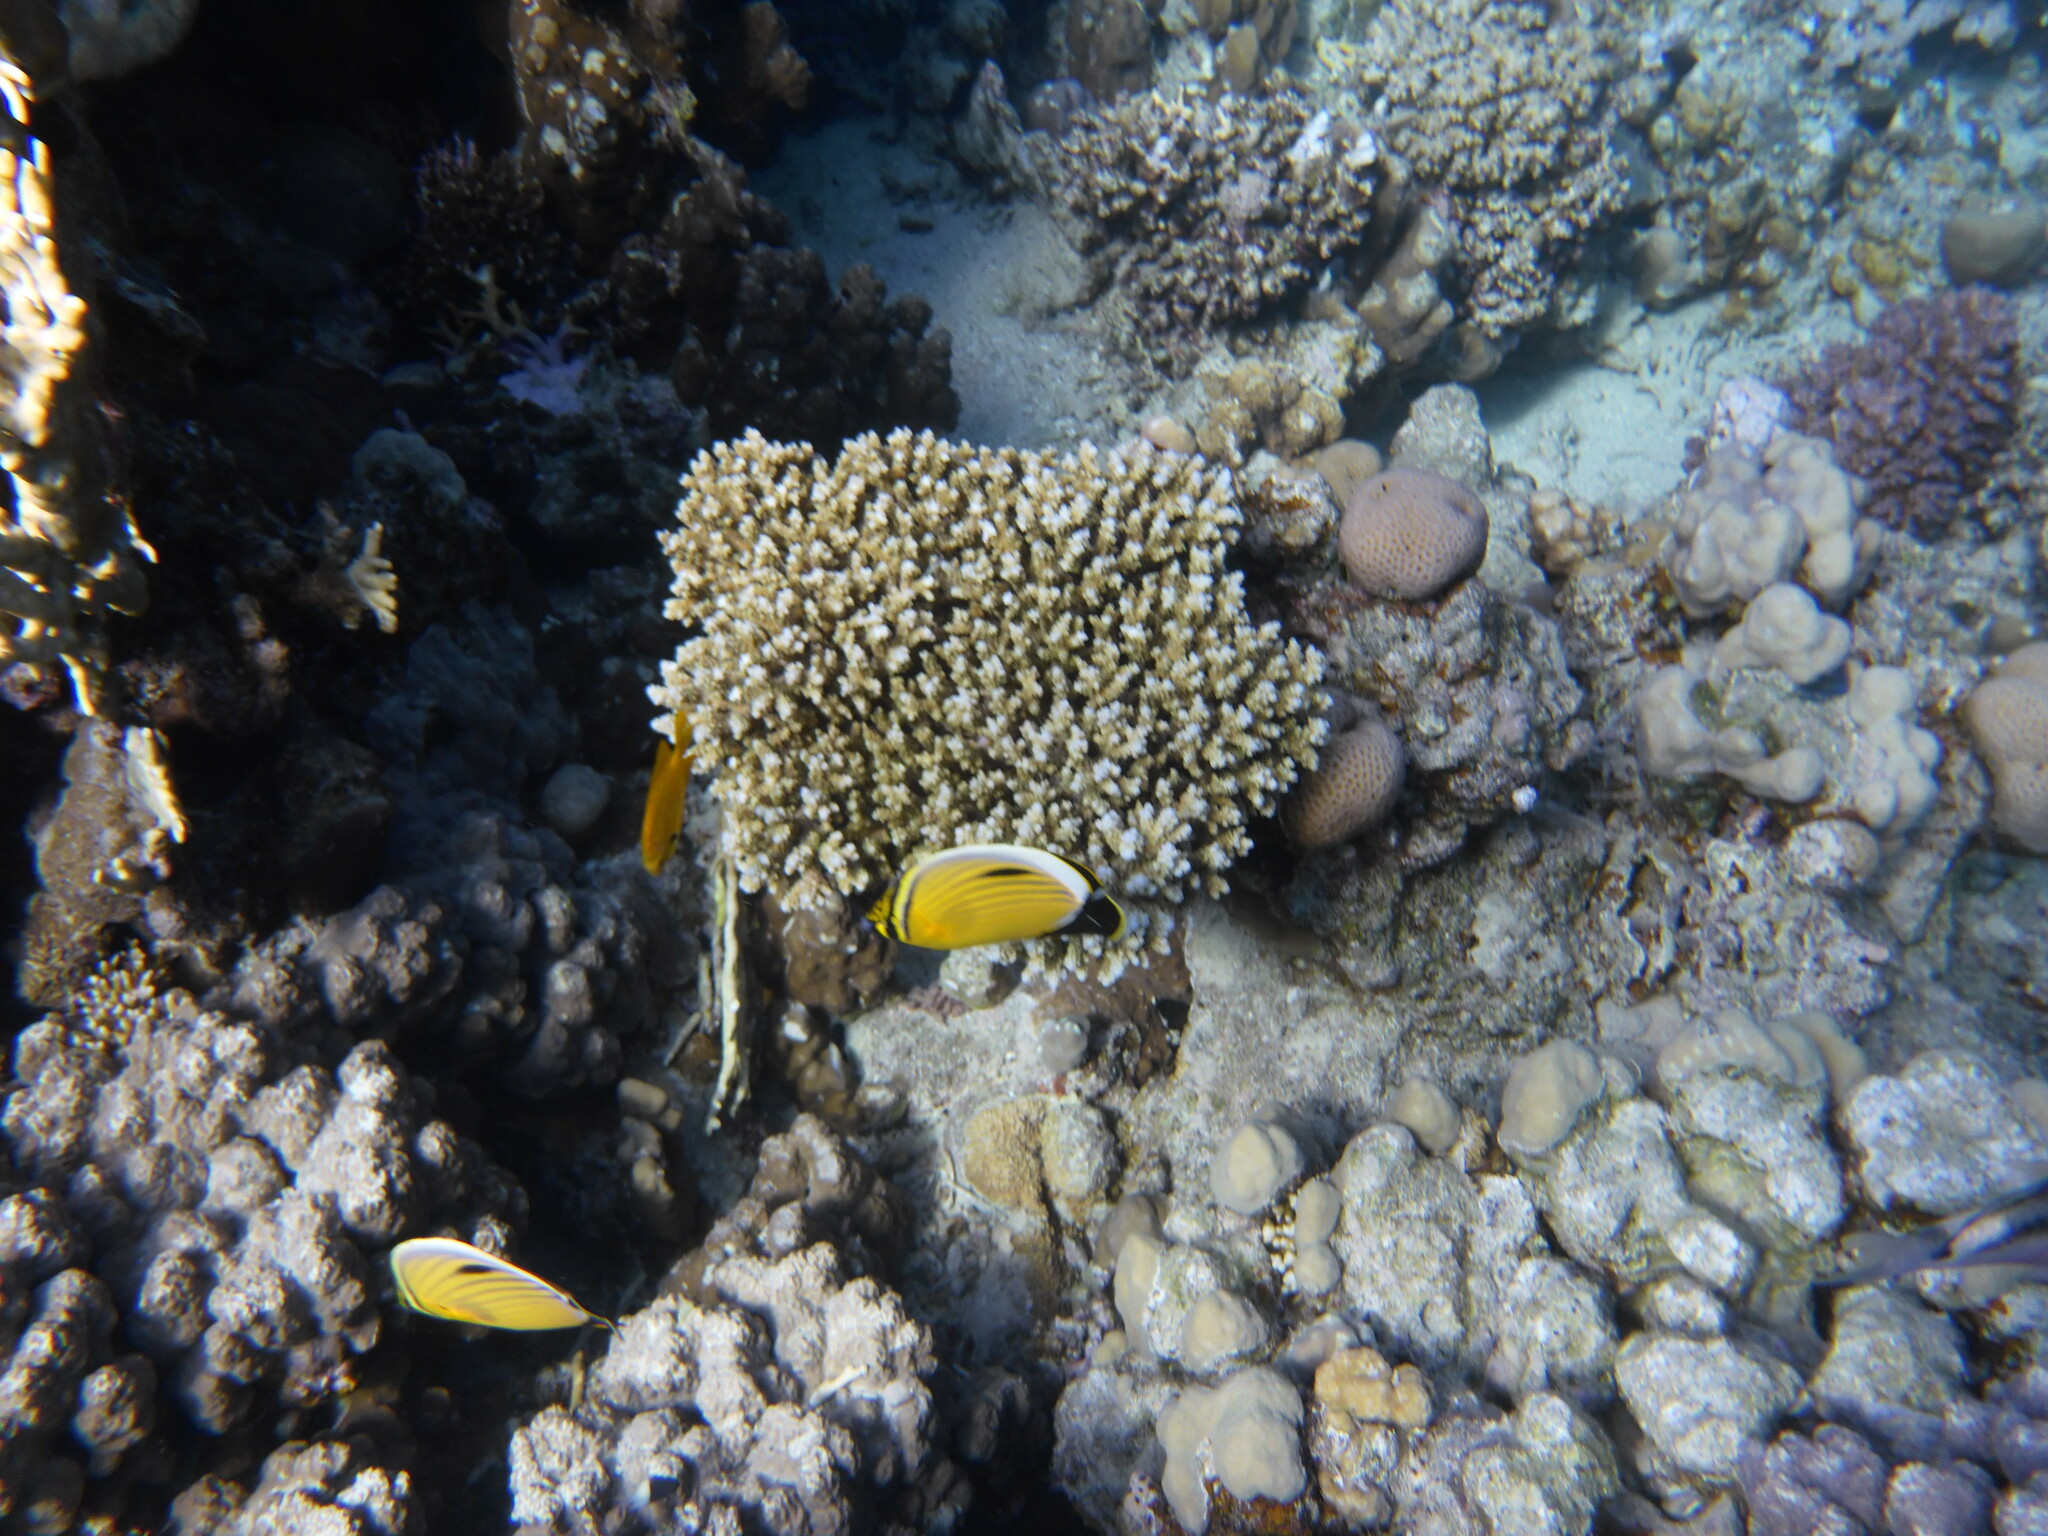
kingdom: Animalia
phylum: Chordata
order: Perciformes
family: Chaetodontidae
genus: Chaetodon
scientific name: Chaetodon austriacus
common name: Exquisite butterflyfish
